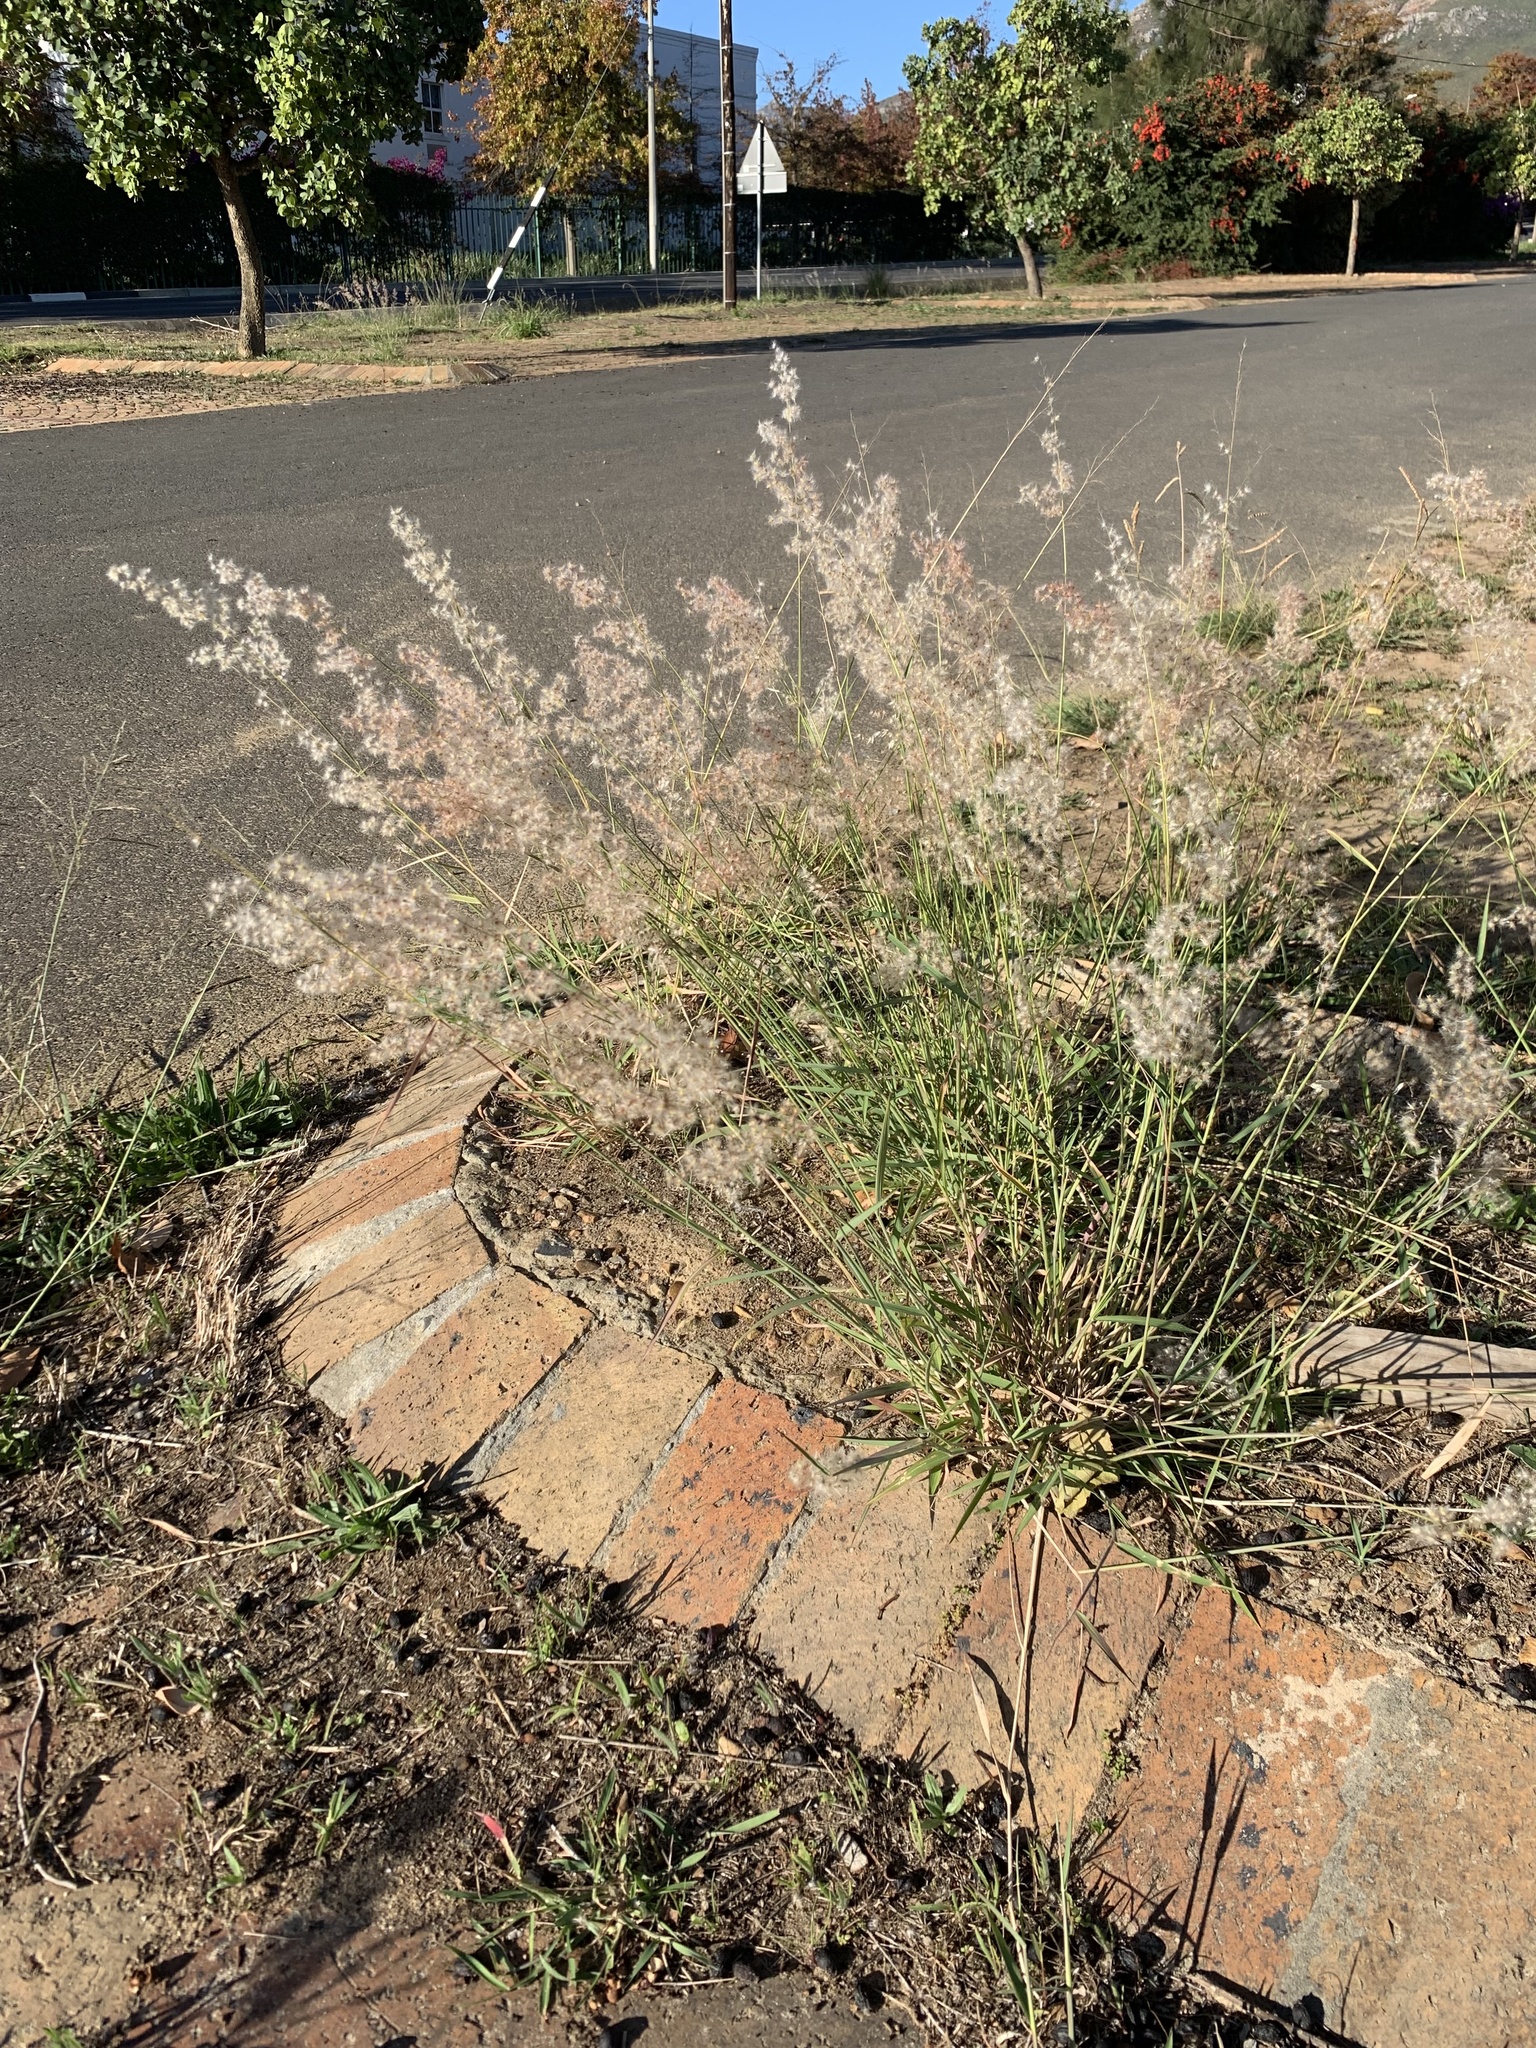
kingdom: Plantae
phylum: Tracheophyta
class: Liliopsida
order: Poales
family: Poaceae
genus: Melinis
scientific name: Melinis repens
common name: Rose natal grass
